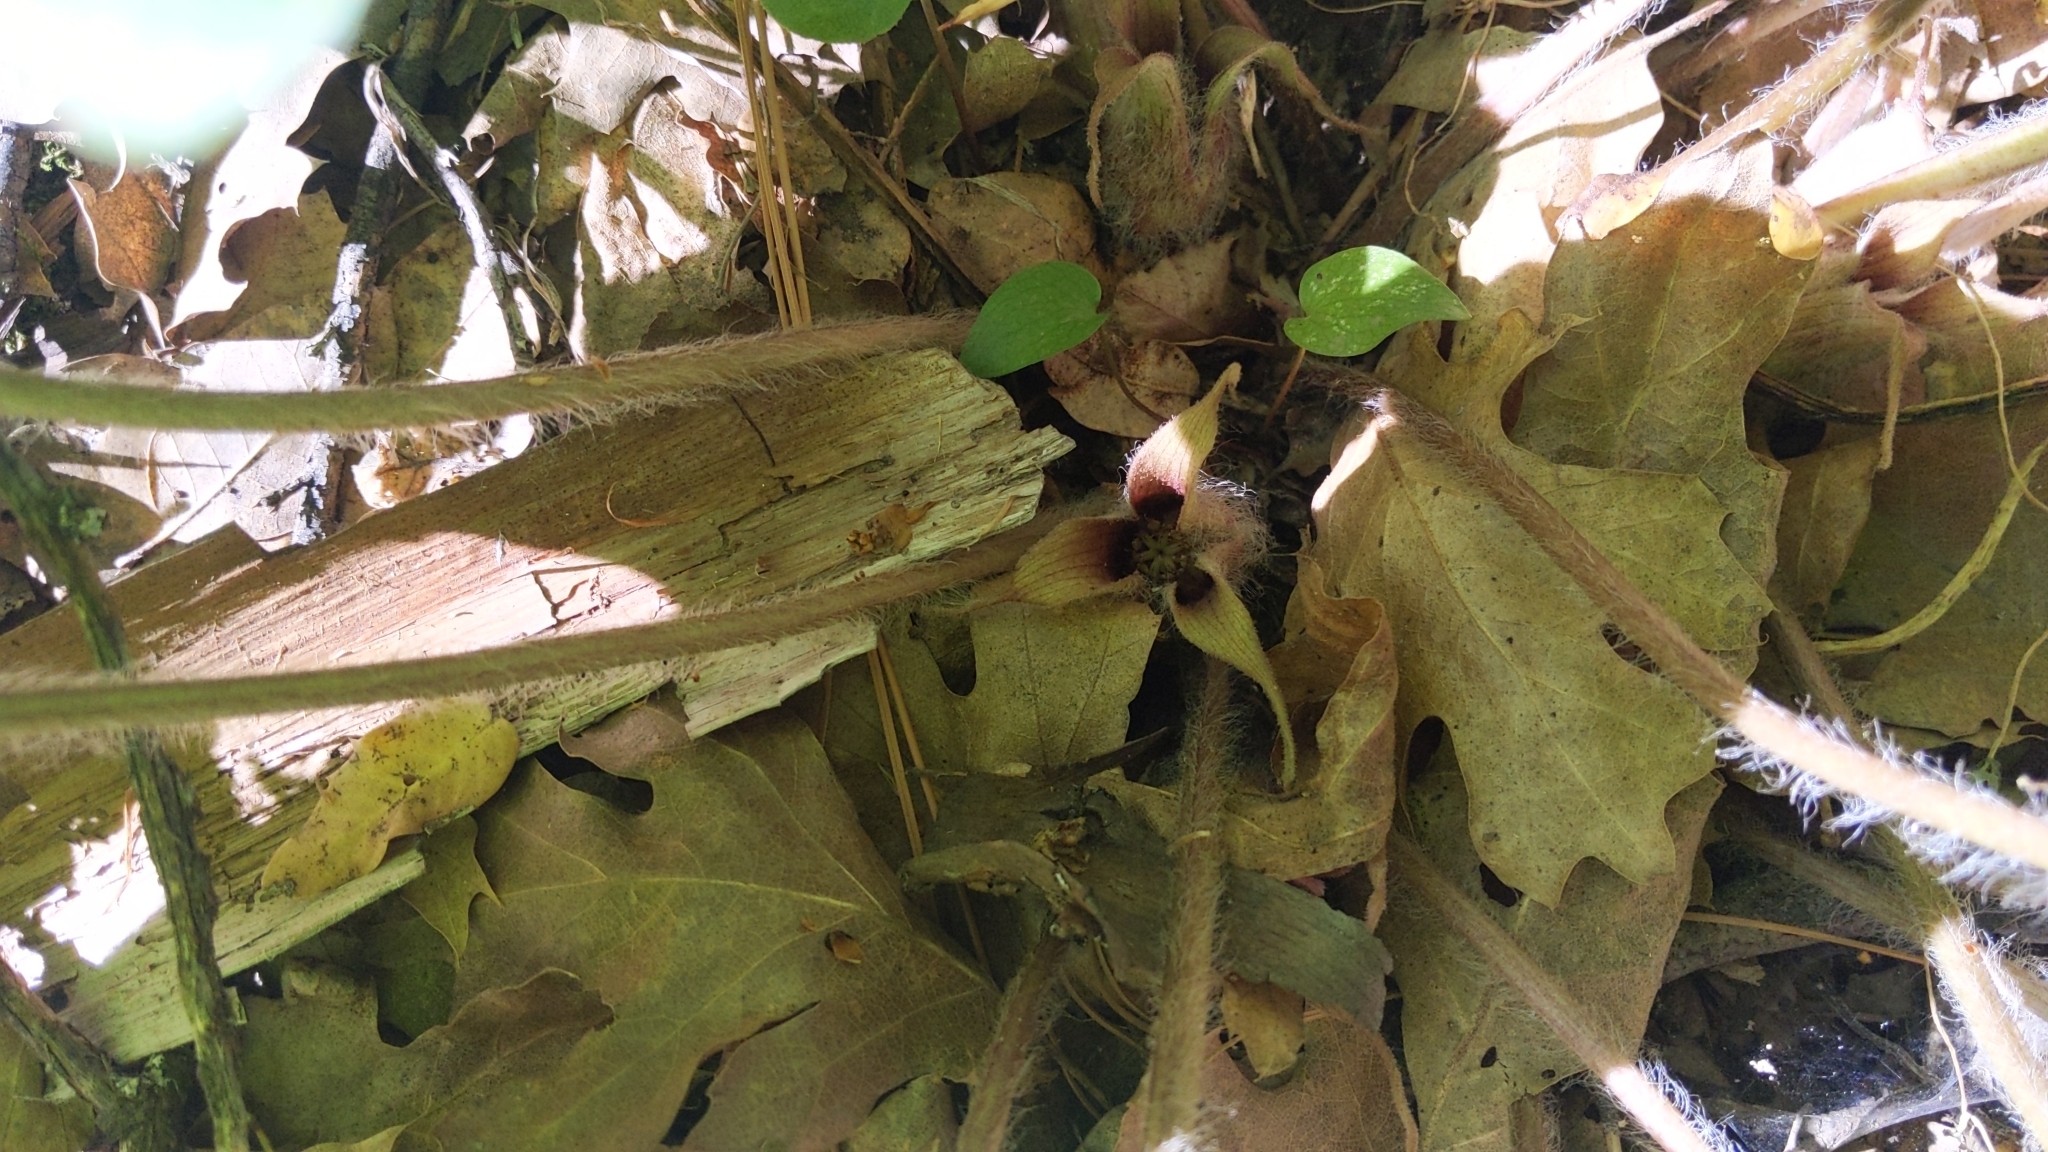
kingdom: Plantae
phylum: Tracheophyta
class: Magnoliopsida
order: Piperales
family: Aristolochiaceae
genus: Asarum
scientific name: Asarum hartwegii
